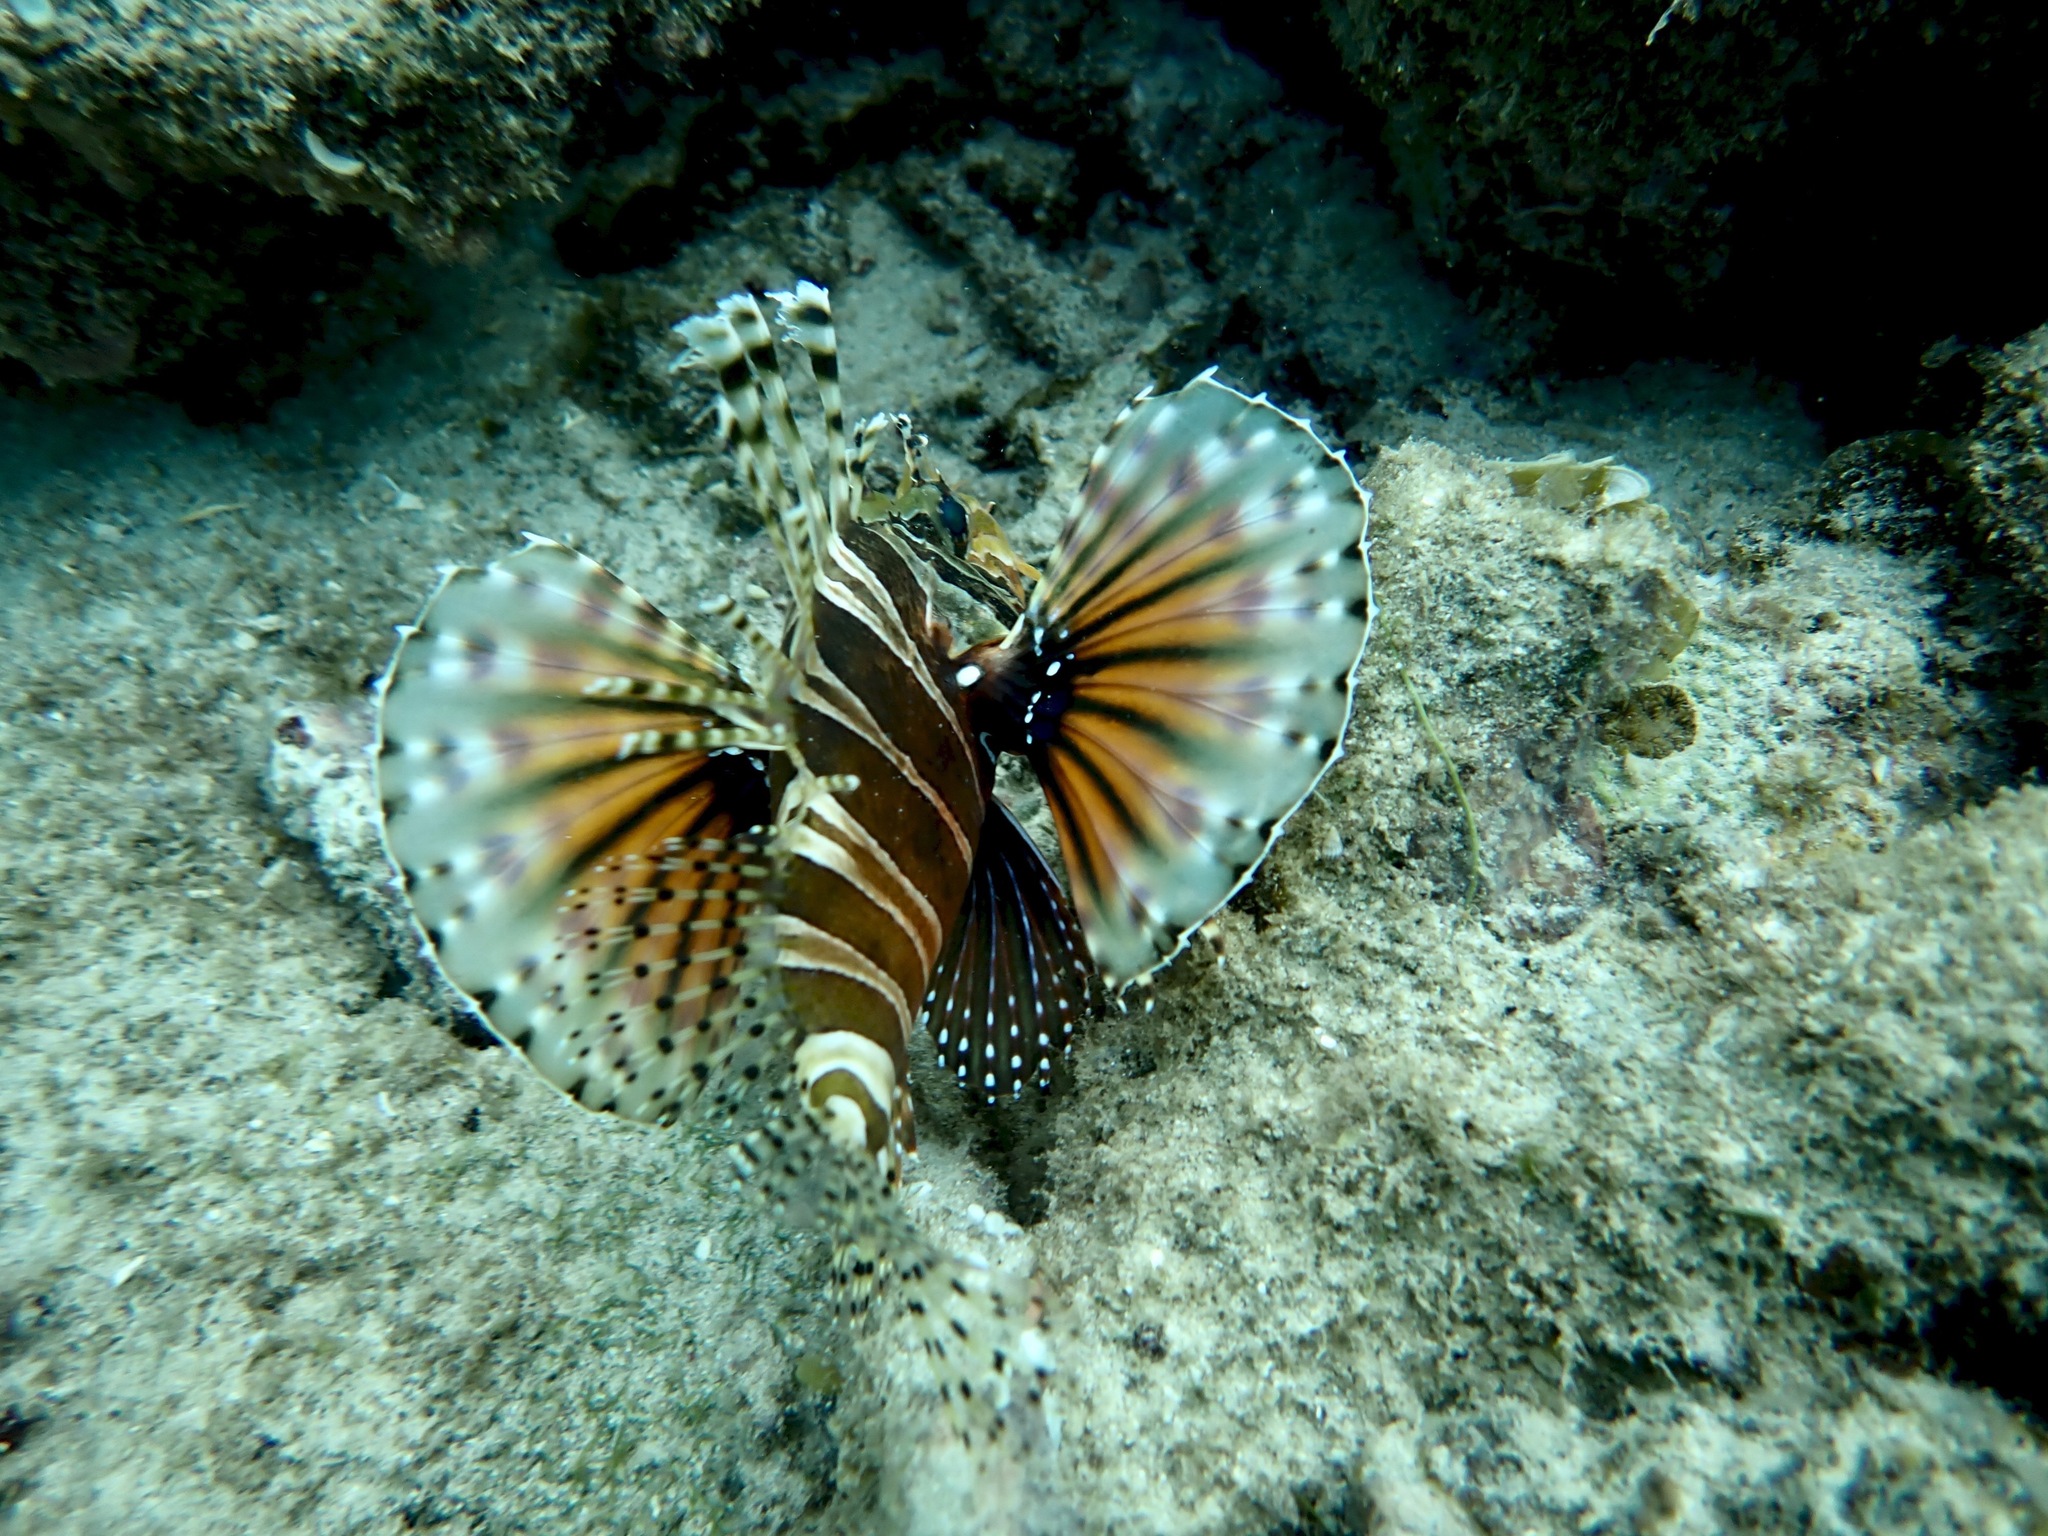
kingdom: Animalia
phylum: Chordata
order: Scorpaeniformes
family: Scorpaenidae
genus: Dendrochirus
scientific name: Dendrochirus zebra
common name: Zebra lionfish
